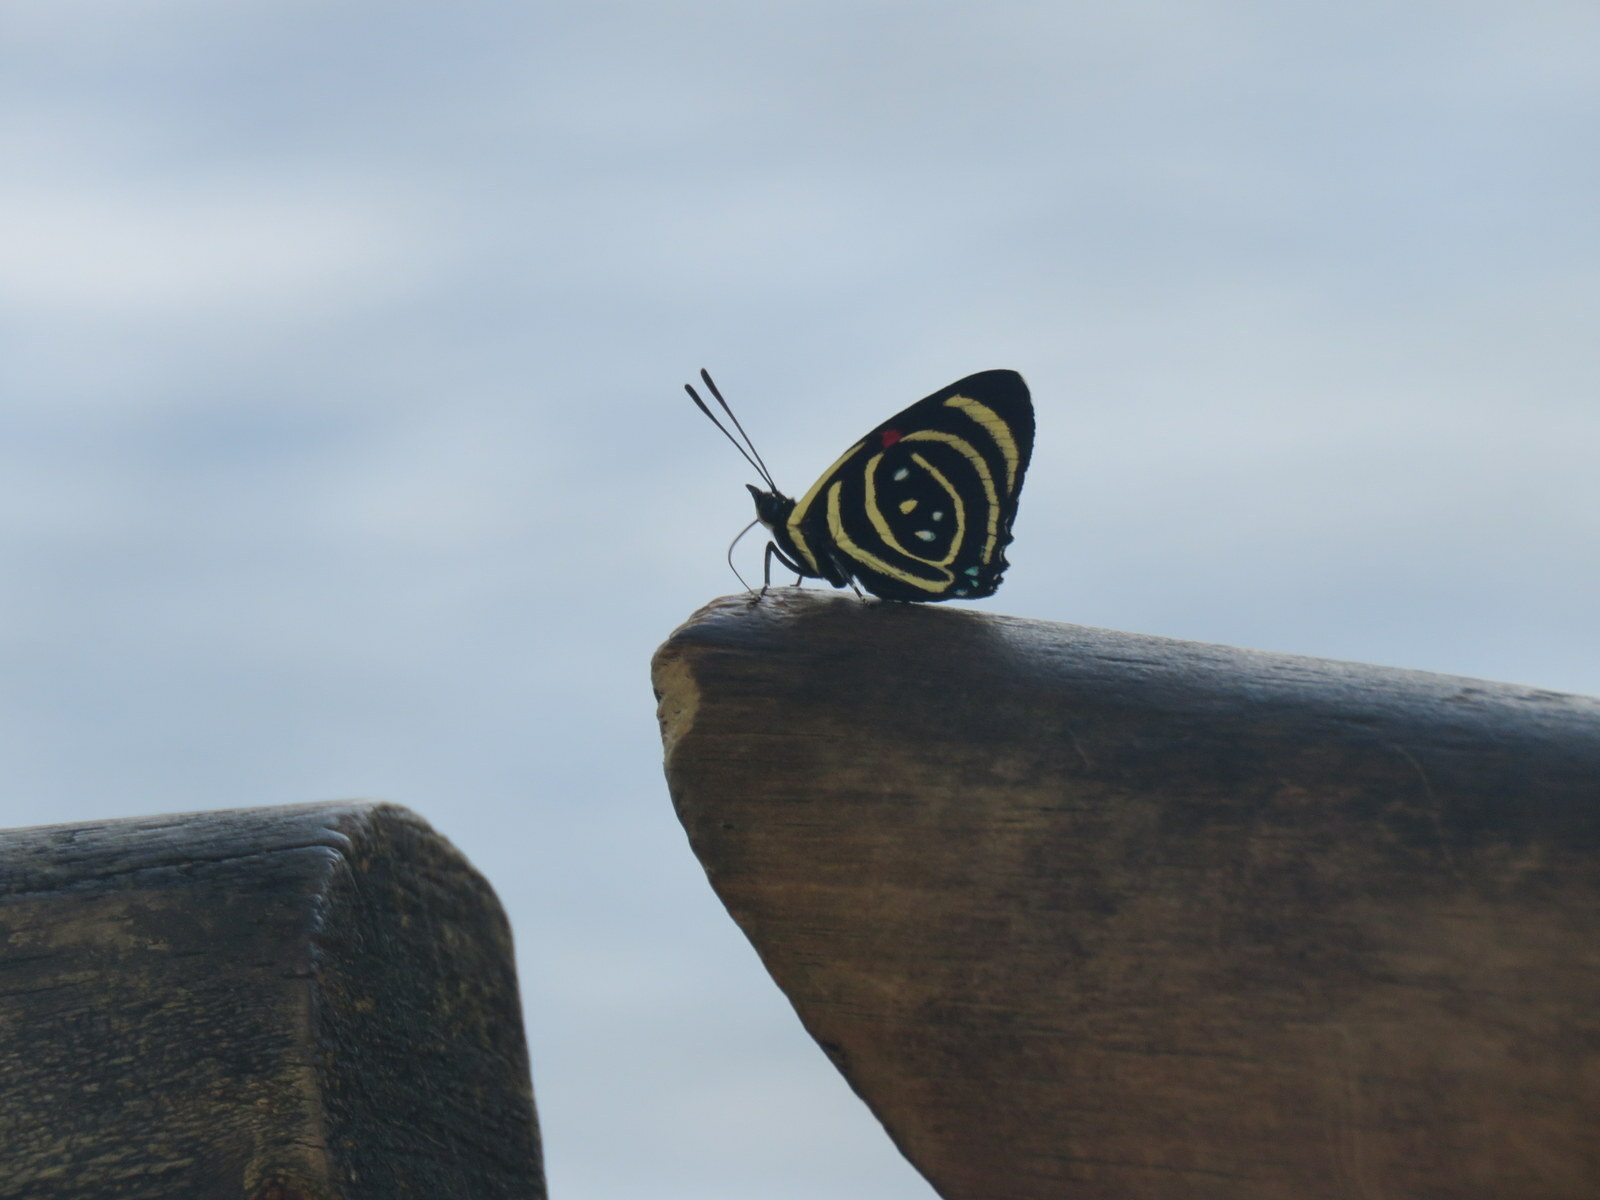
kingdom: Animalia
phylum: Arthropoda
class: Insecta
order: Lepidoptera
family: Nymphalidae
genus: Catagramma
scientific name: Catagramma Callicore hydaspes
